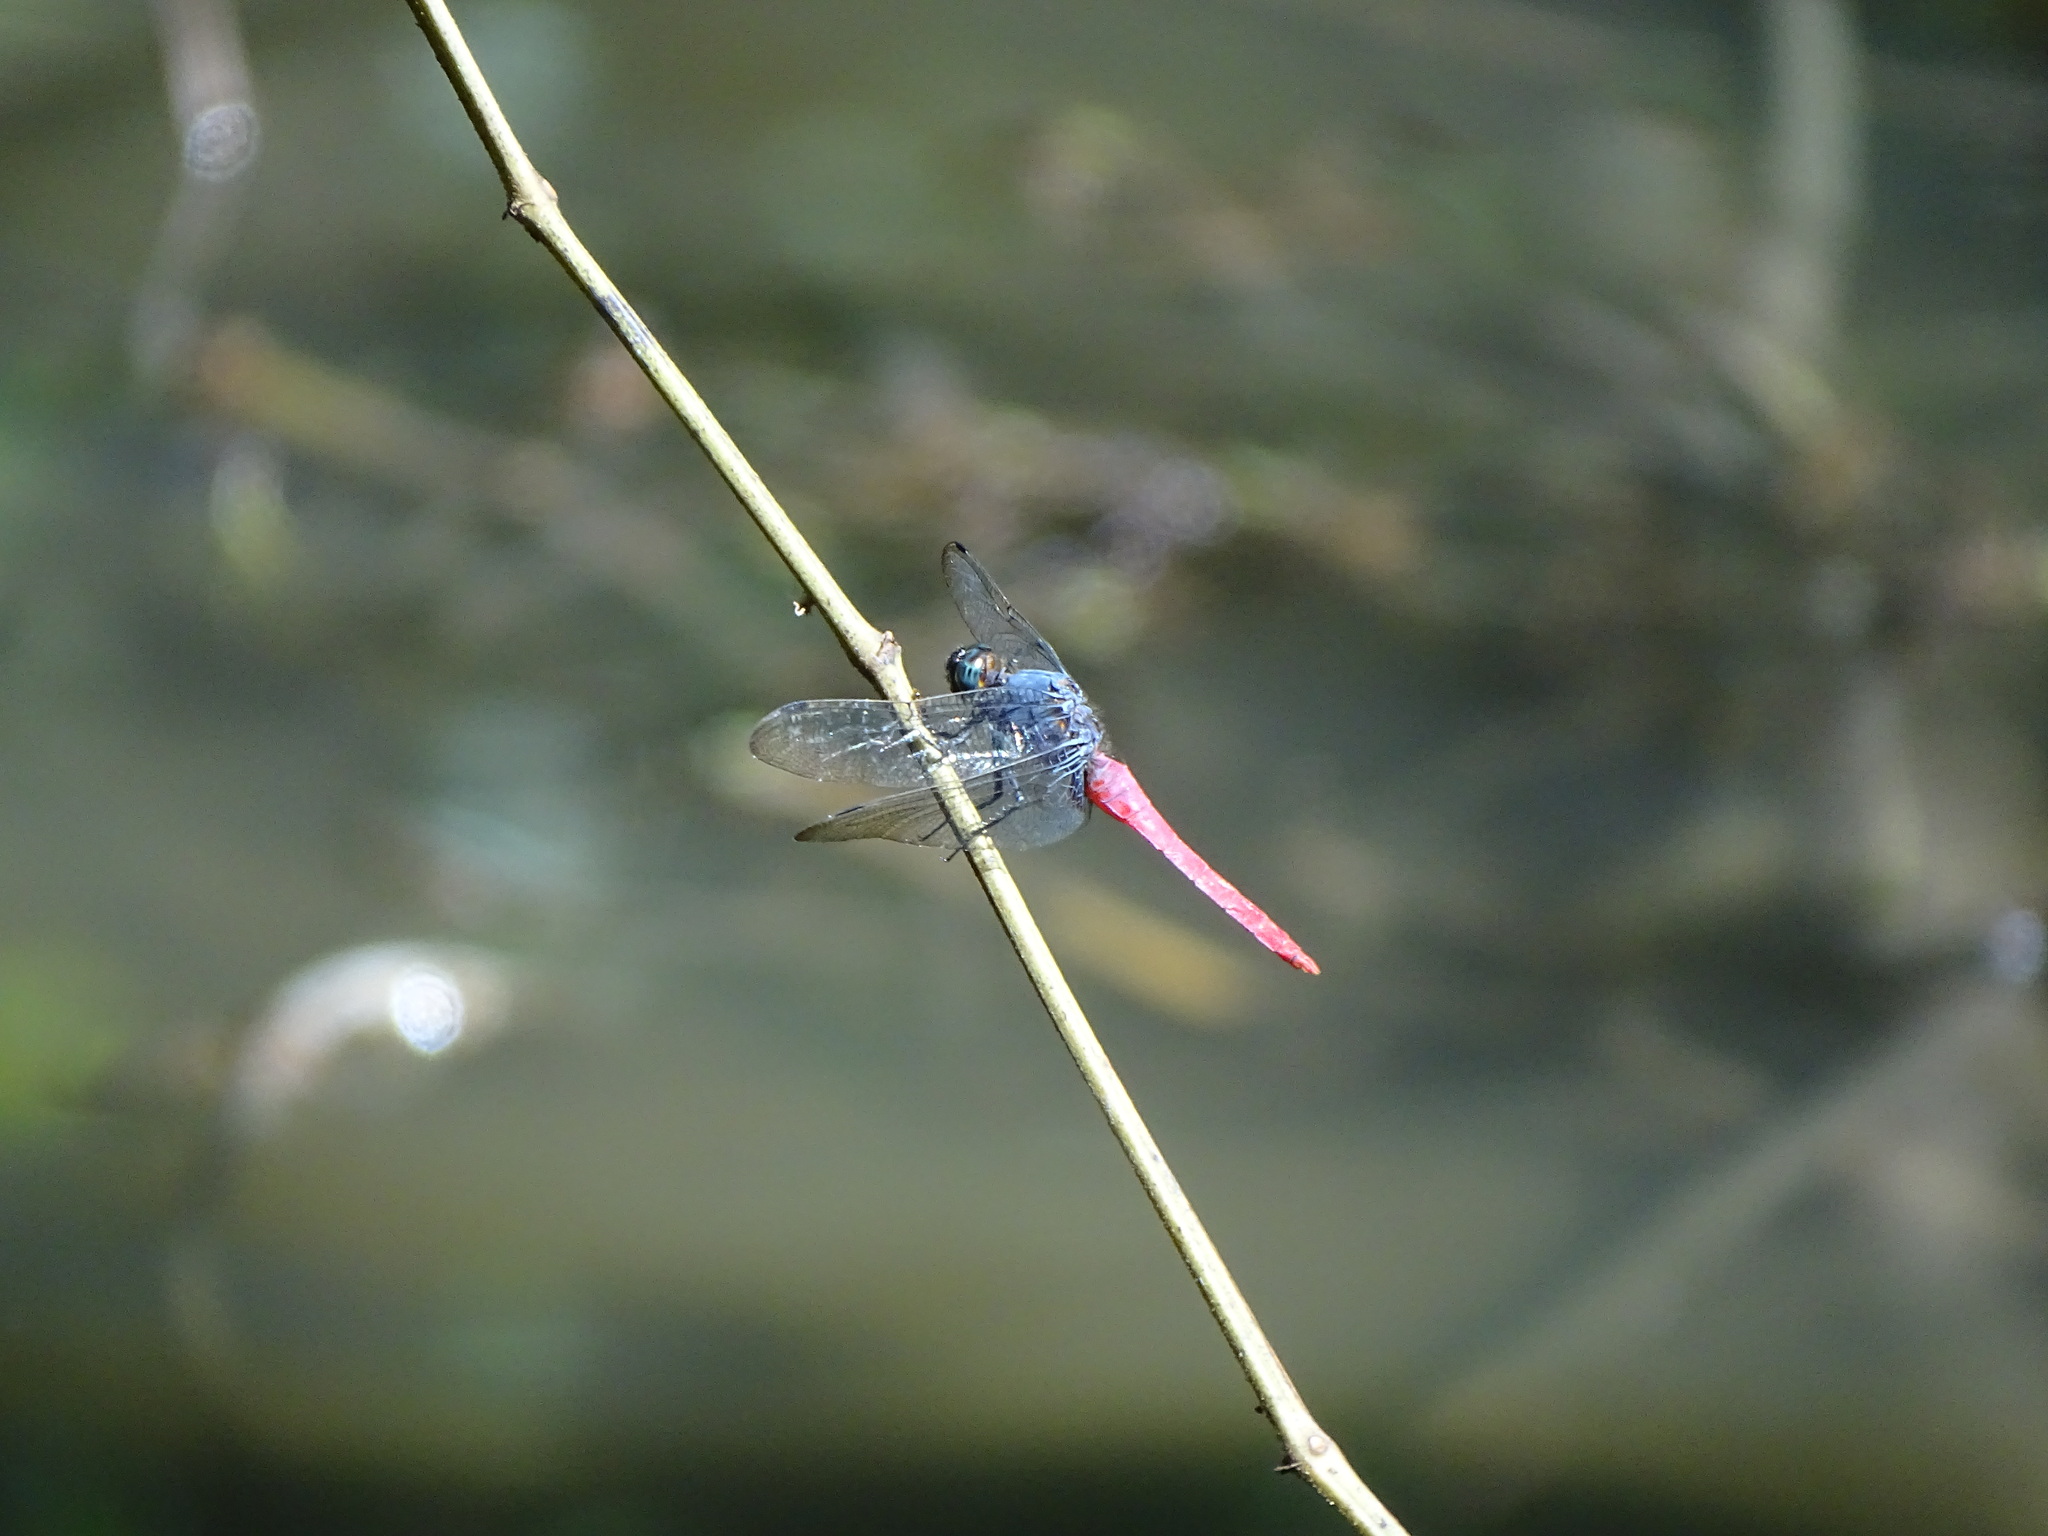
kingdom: Animalia
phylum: Arthropoda
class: Insecta
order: Odonata
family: Libellulidae
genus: Orthetrum
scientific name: Orthetrum pruinosum
